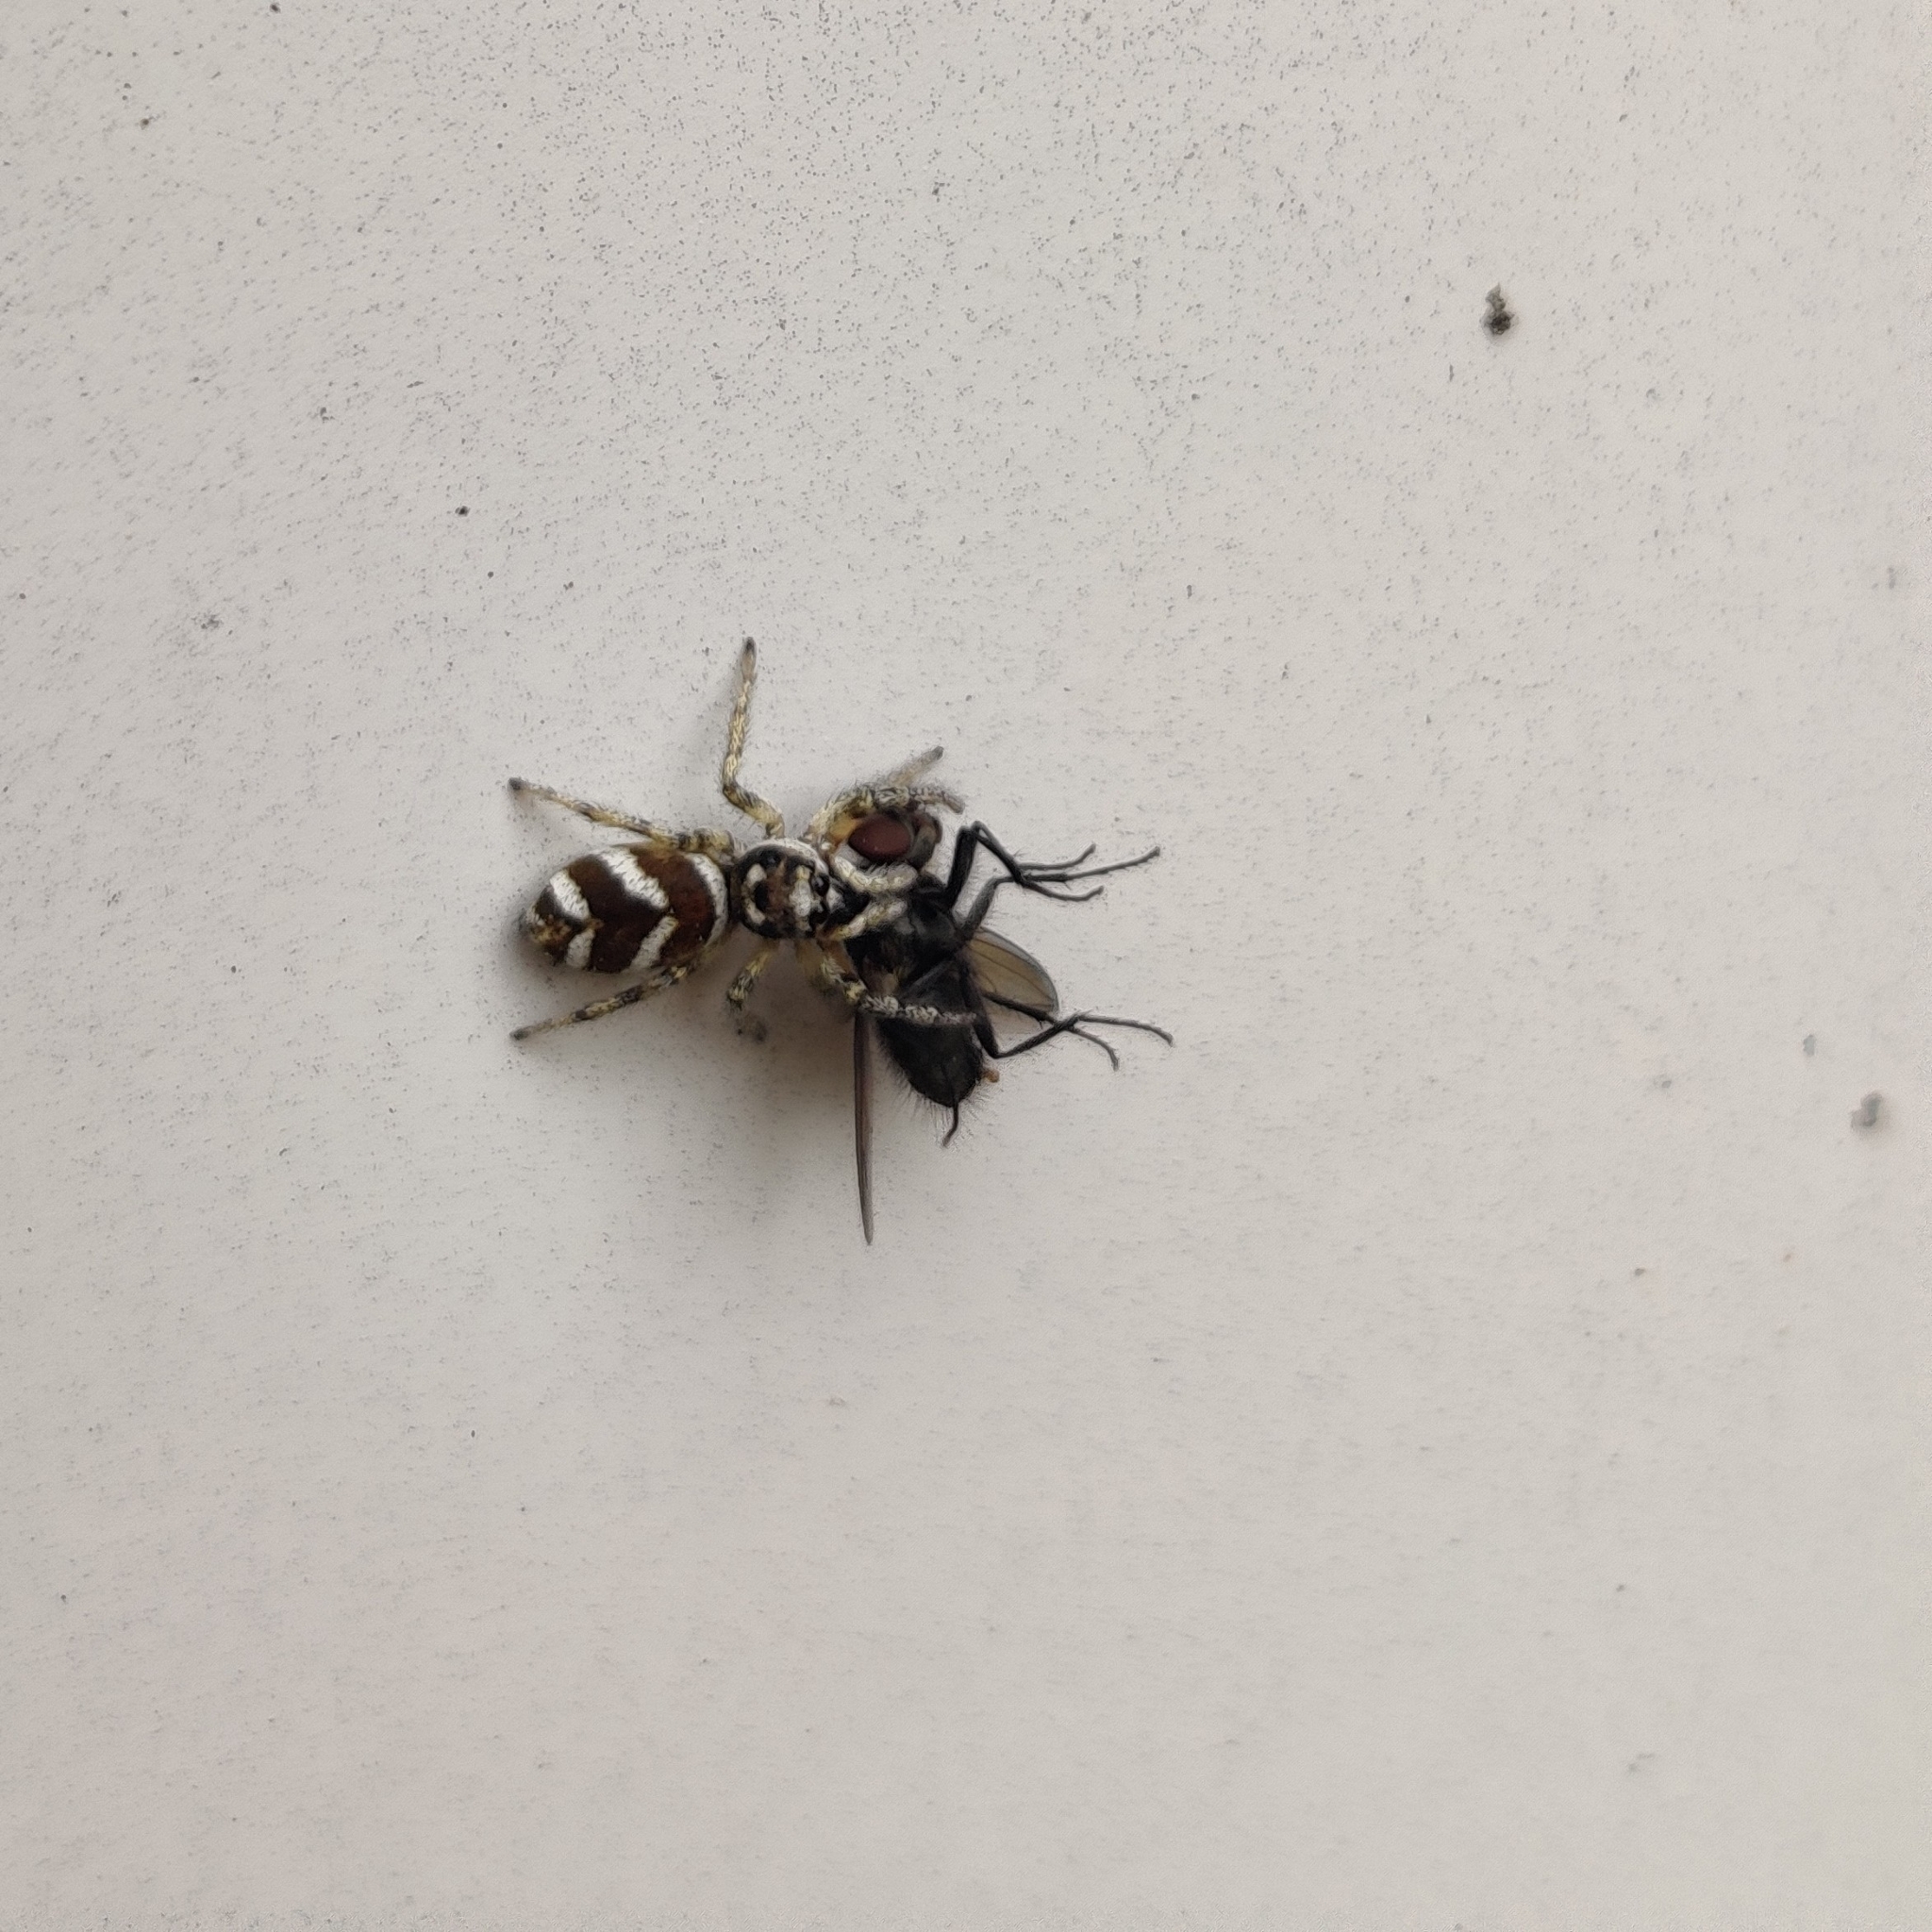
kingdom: Animalia
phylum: Arthropoda
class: Arachnida
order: Araneae
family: Salticidae
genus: Salticus
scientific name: Salticus scenicus
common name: Zebra jumper
